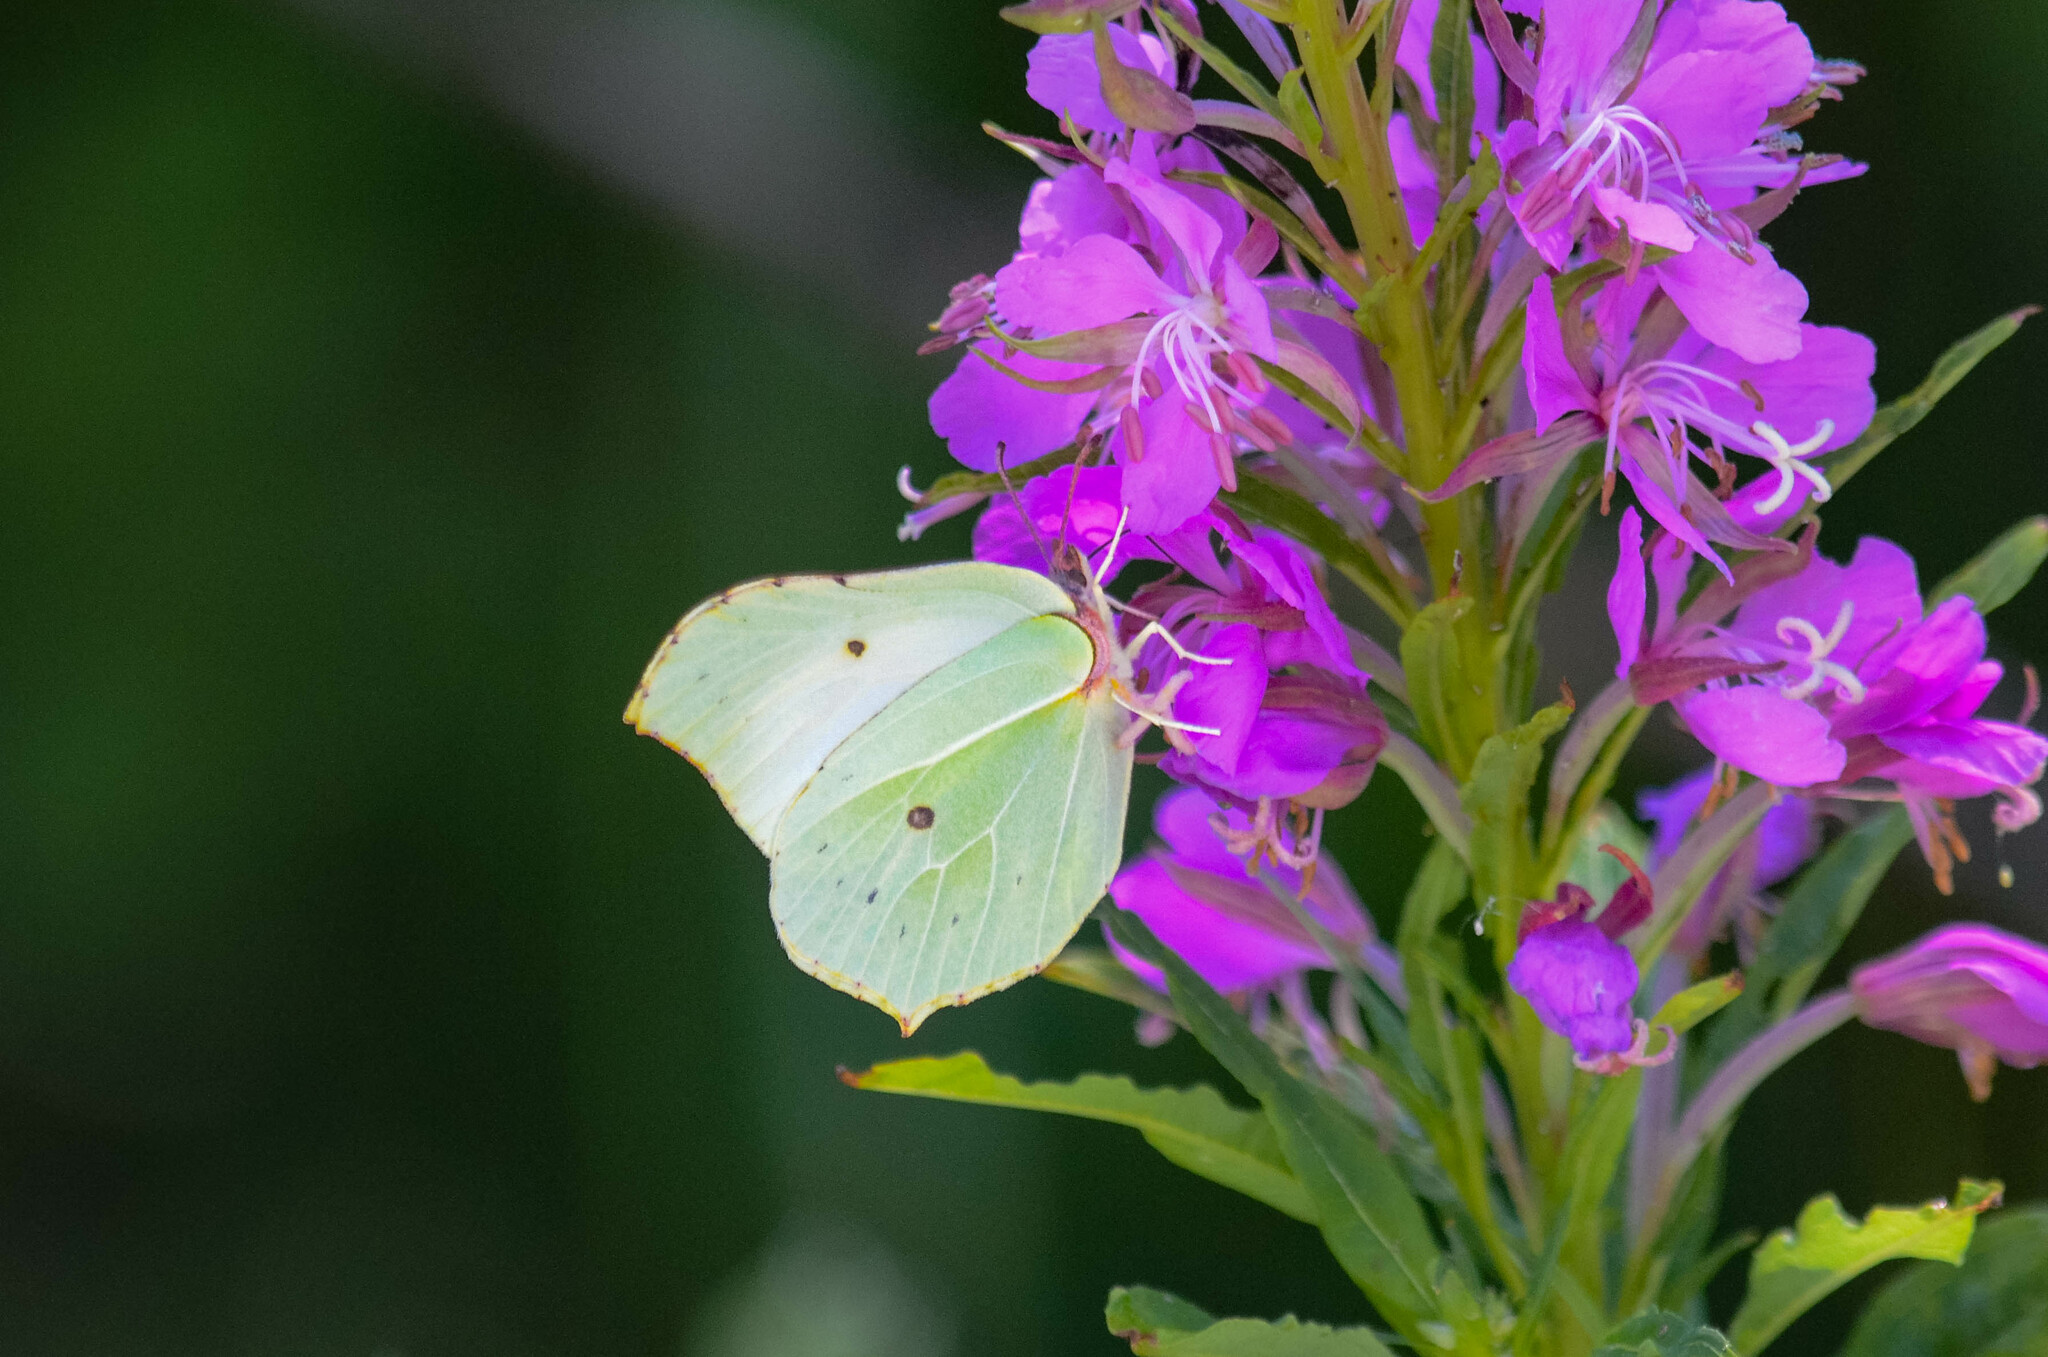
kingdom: Animalia
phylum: Arthropoda
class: Insecta
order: Lepidoptera
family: Pieridae
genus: Gonepteryx
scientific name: Gonepteryx rhamni
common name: Brimstone
